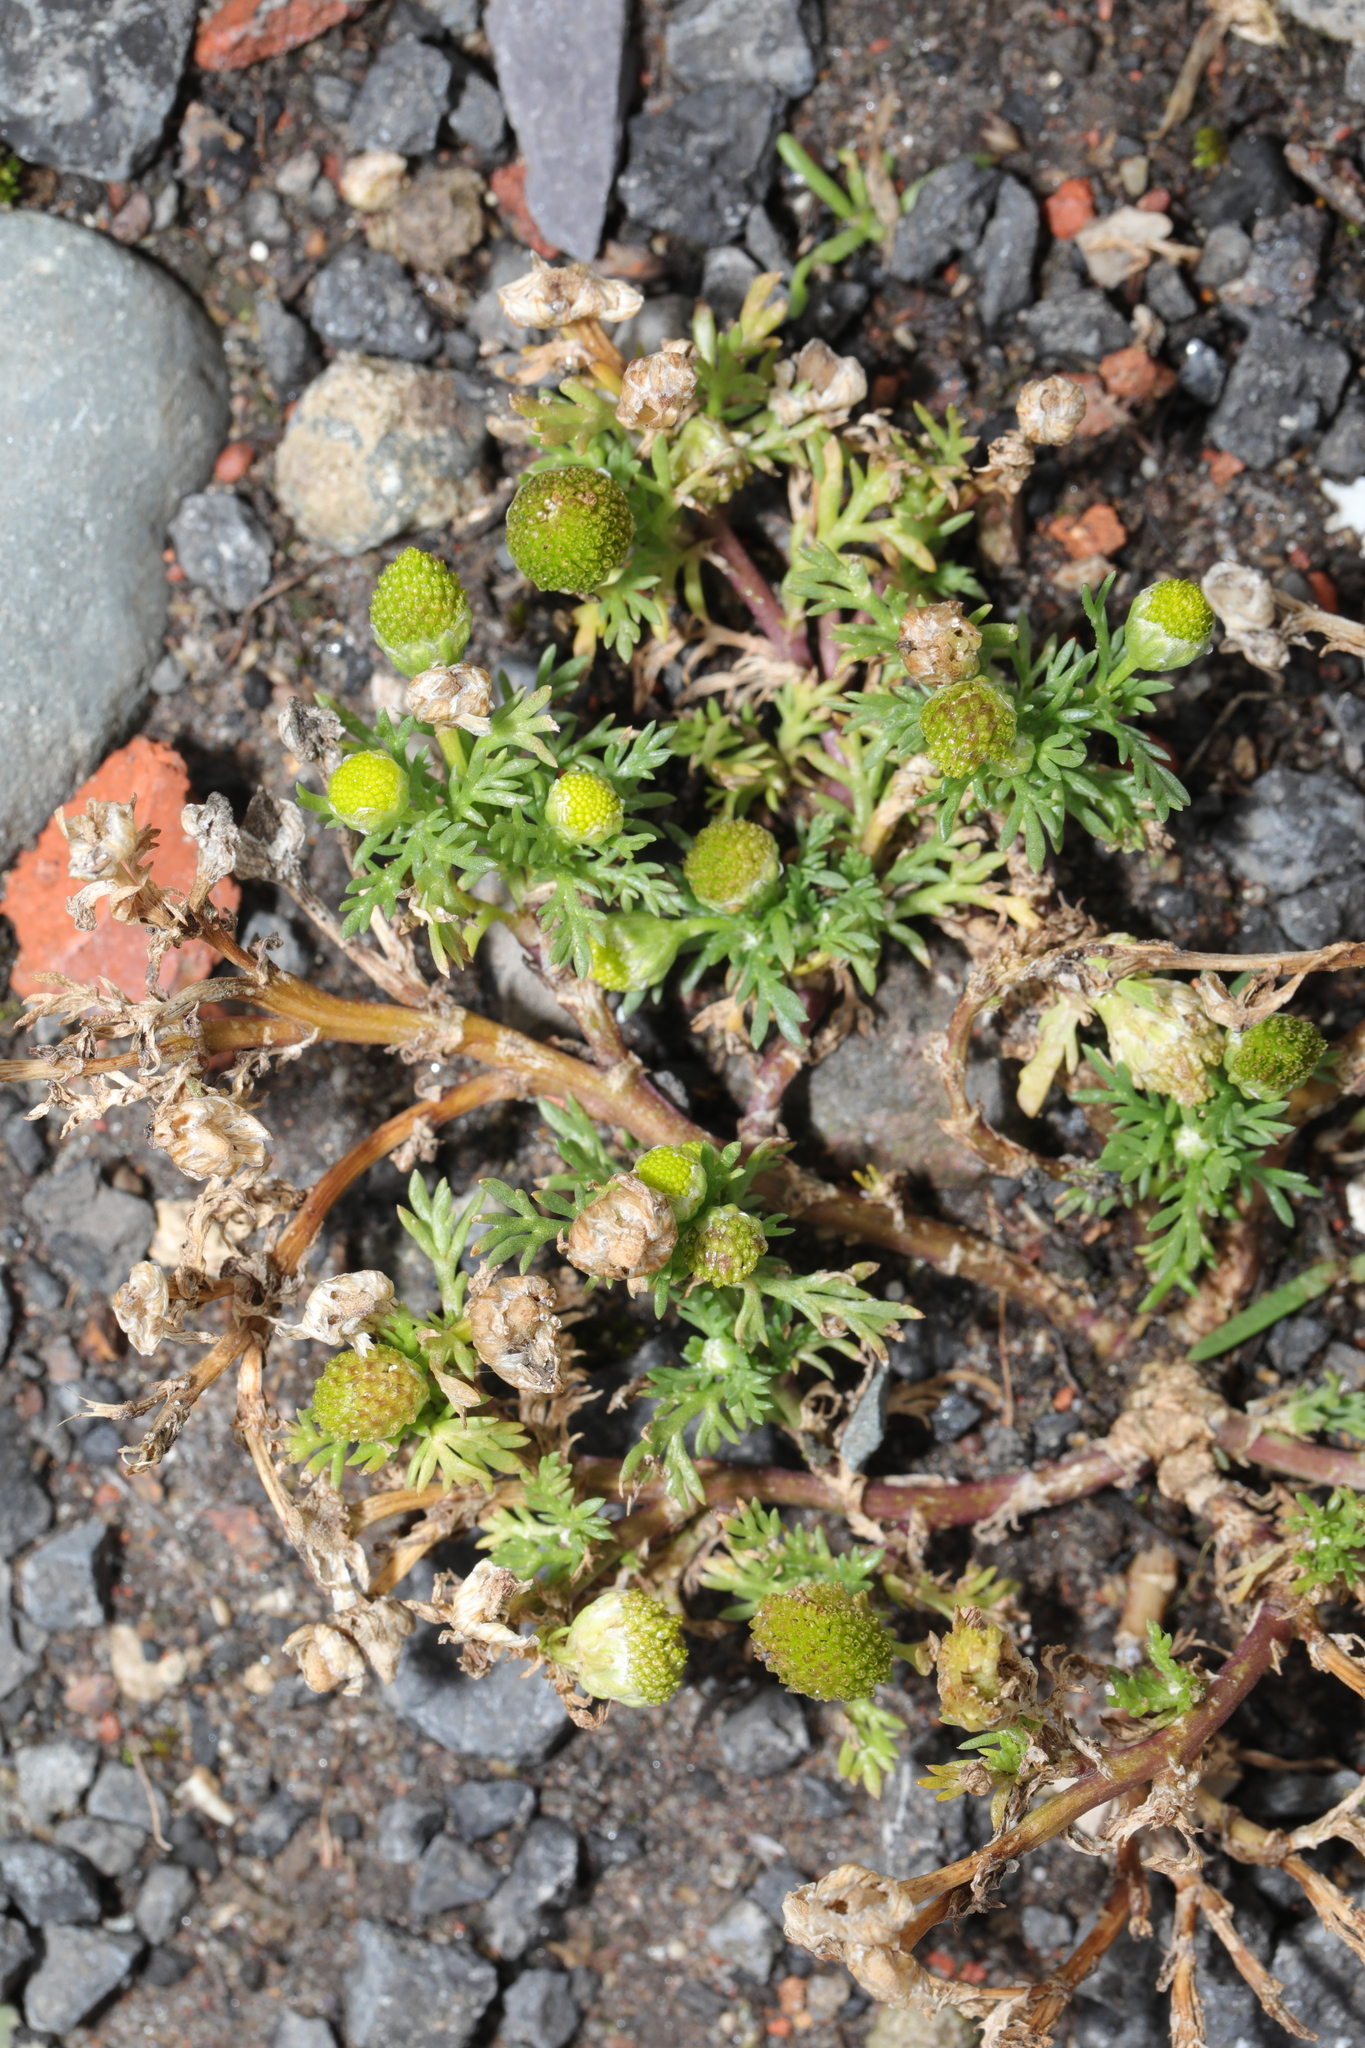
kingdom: Plantae
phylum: Tracheophyta
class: Magnoliopsida
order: Asterales
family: Asteraceae
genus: Matricaria
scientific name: Matricaria discoidea
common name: Disc mayweed
